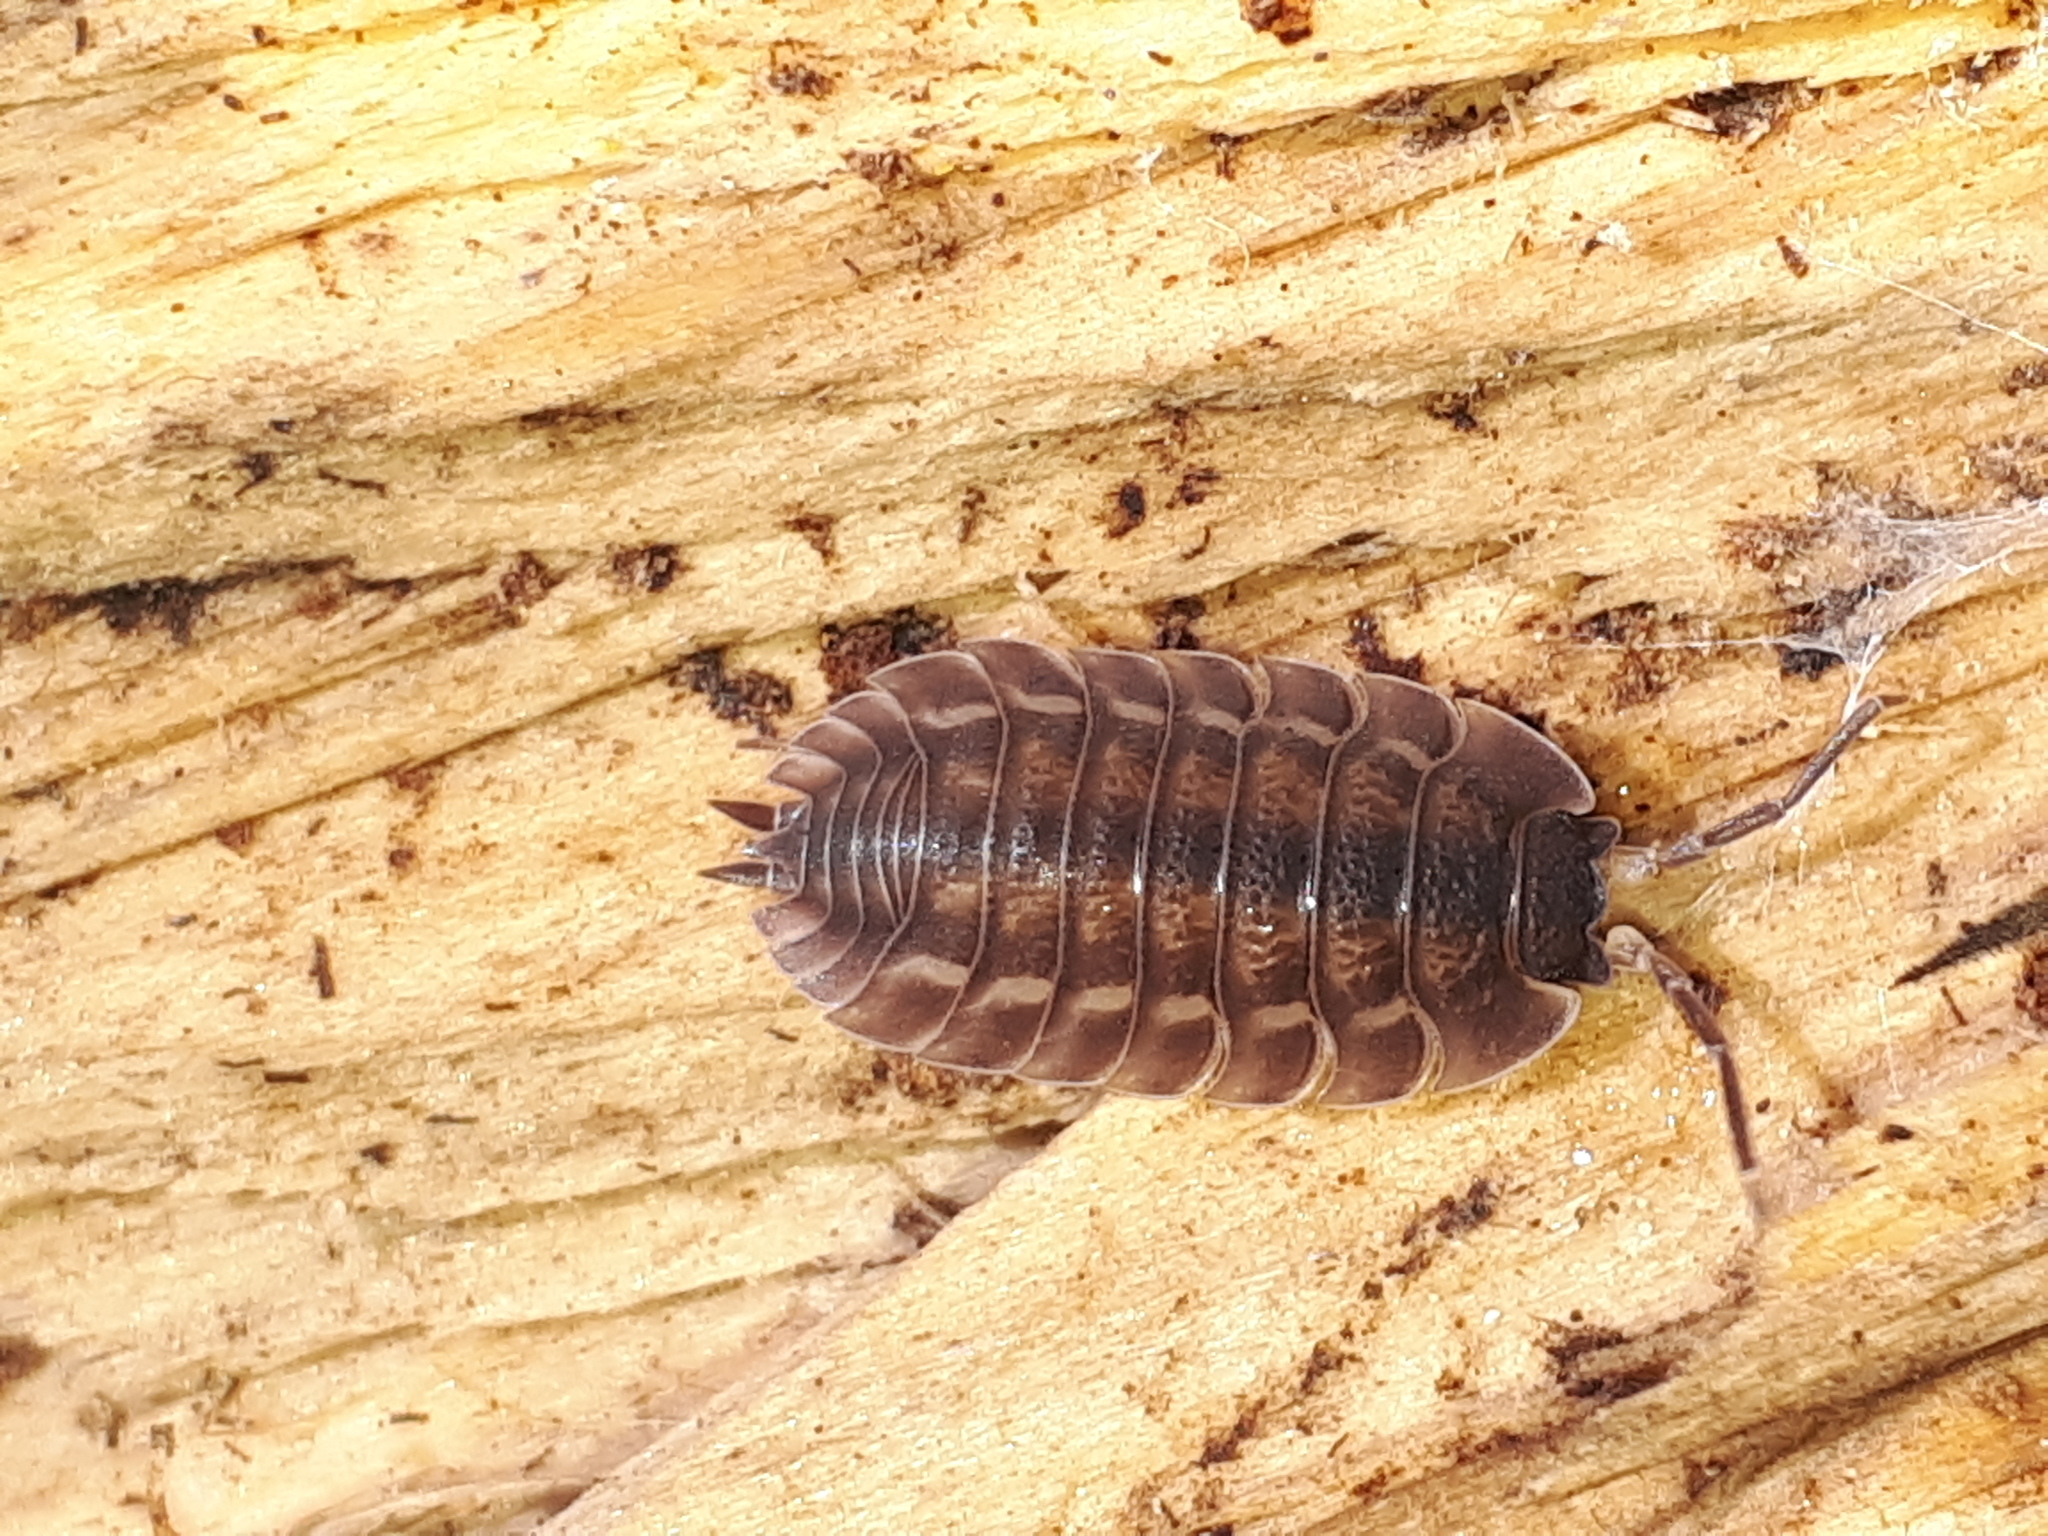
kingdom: Animalia
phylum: Arthropoda
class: Malacostraca
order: Isopoda
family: Trachelipodidae
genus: Trachelipus
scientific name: Trachelipus ratzeburgii
